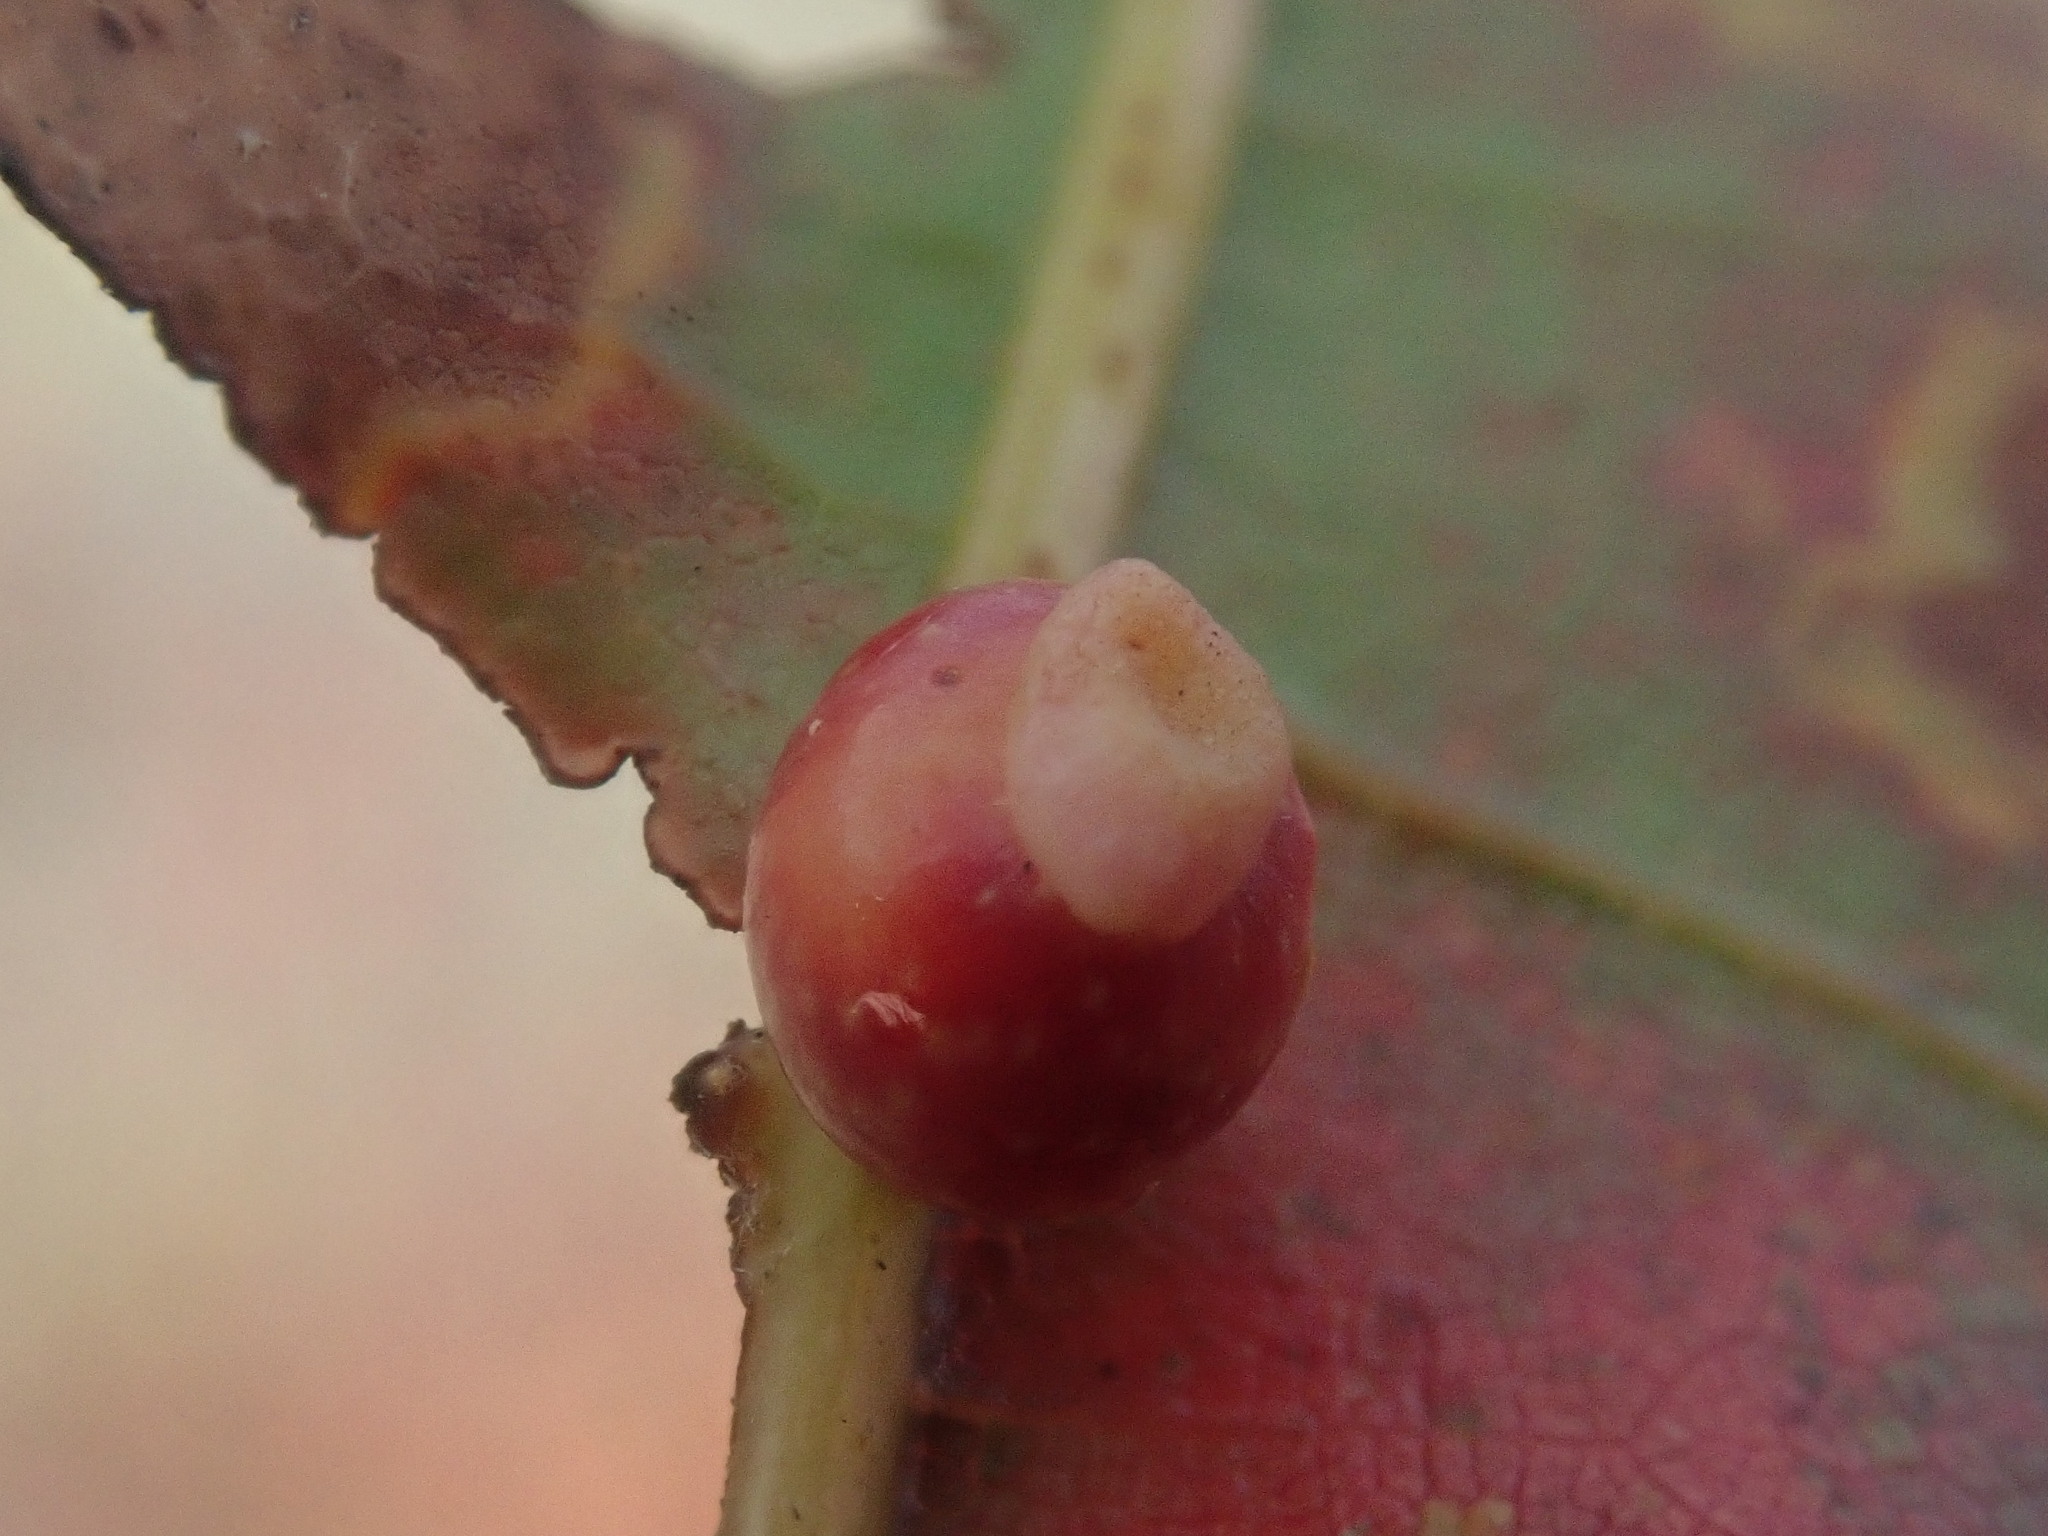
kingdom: Animalia
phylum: Arthropoda
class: Insecta
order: Hymenoptera
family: Cynipidae
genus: Kokkocynips
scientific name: Kokkocynips rileyi
